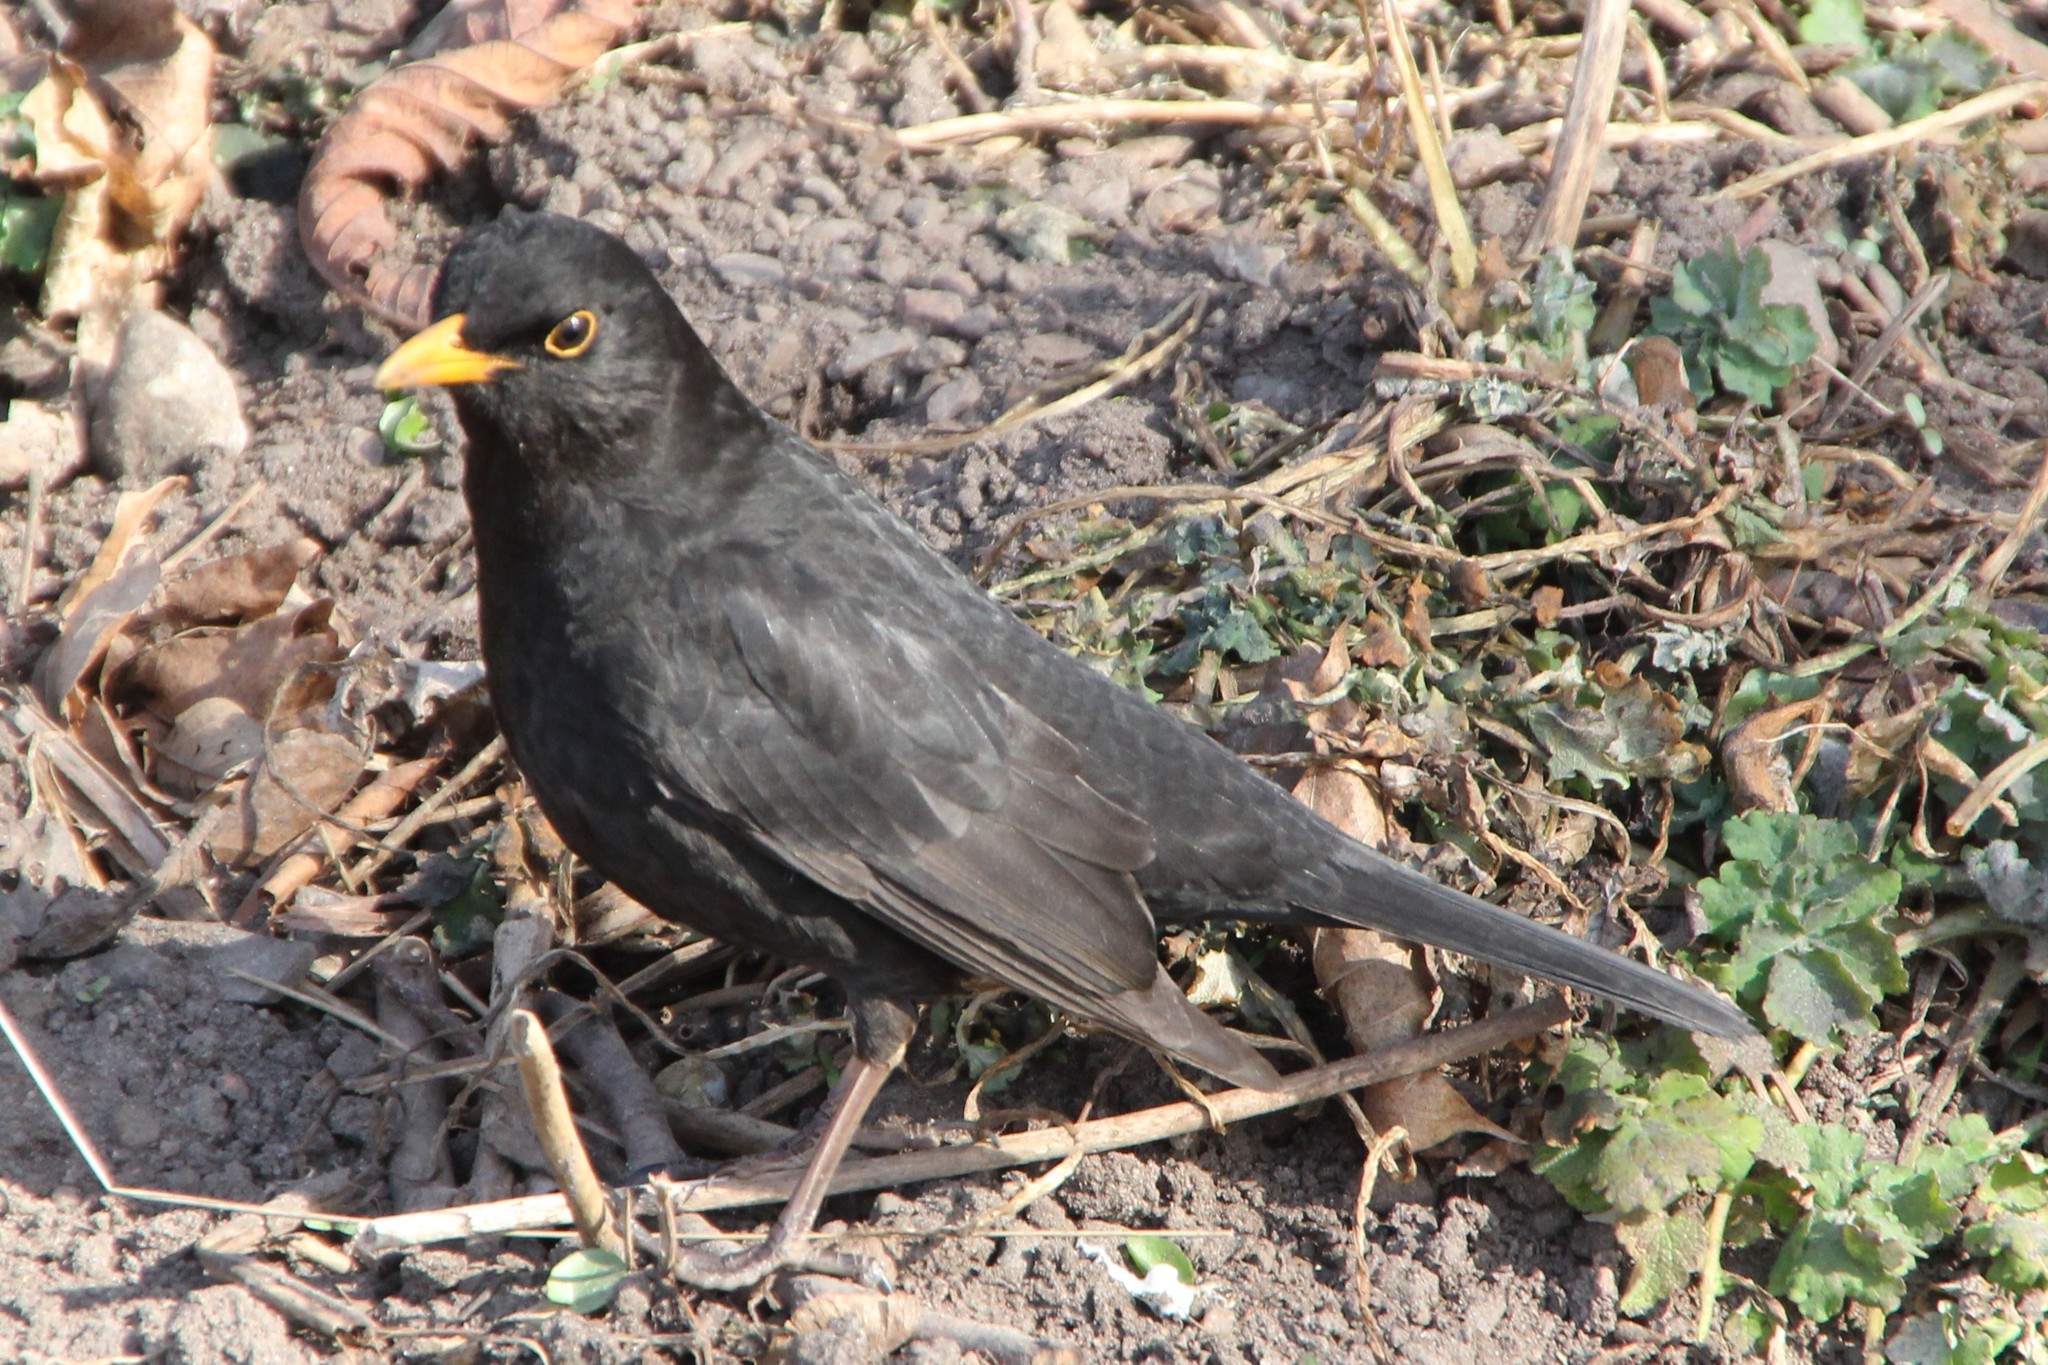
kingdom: Animalia
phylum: Chordata
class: Aves
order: Passeriformes
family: Turdidae
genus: Turdus
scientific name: Turdus merula
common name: Common blackbird
